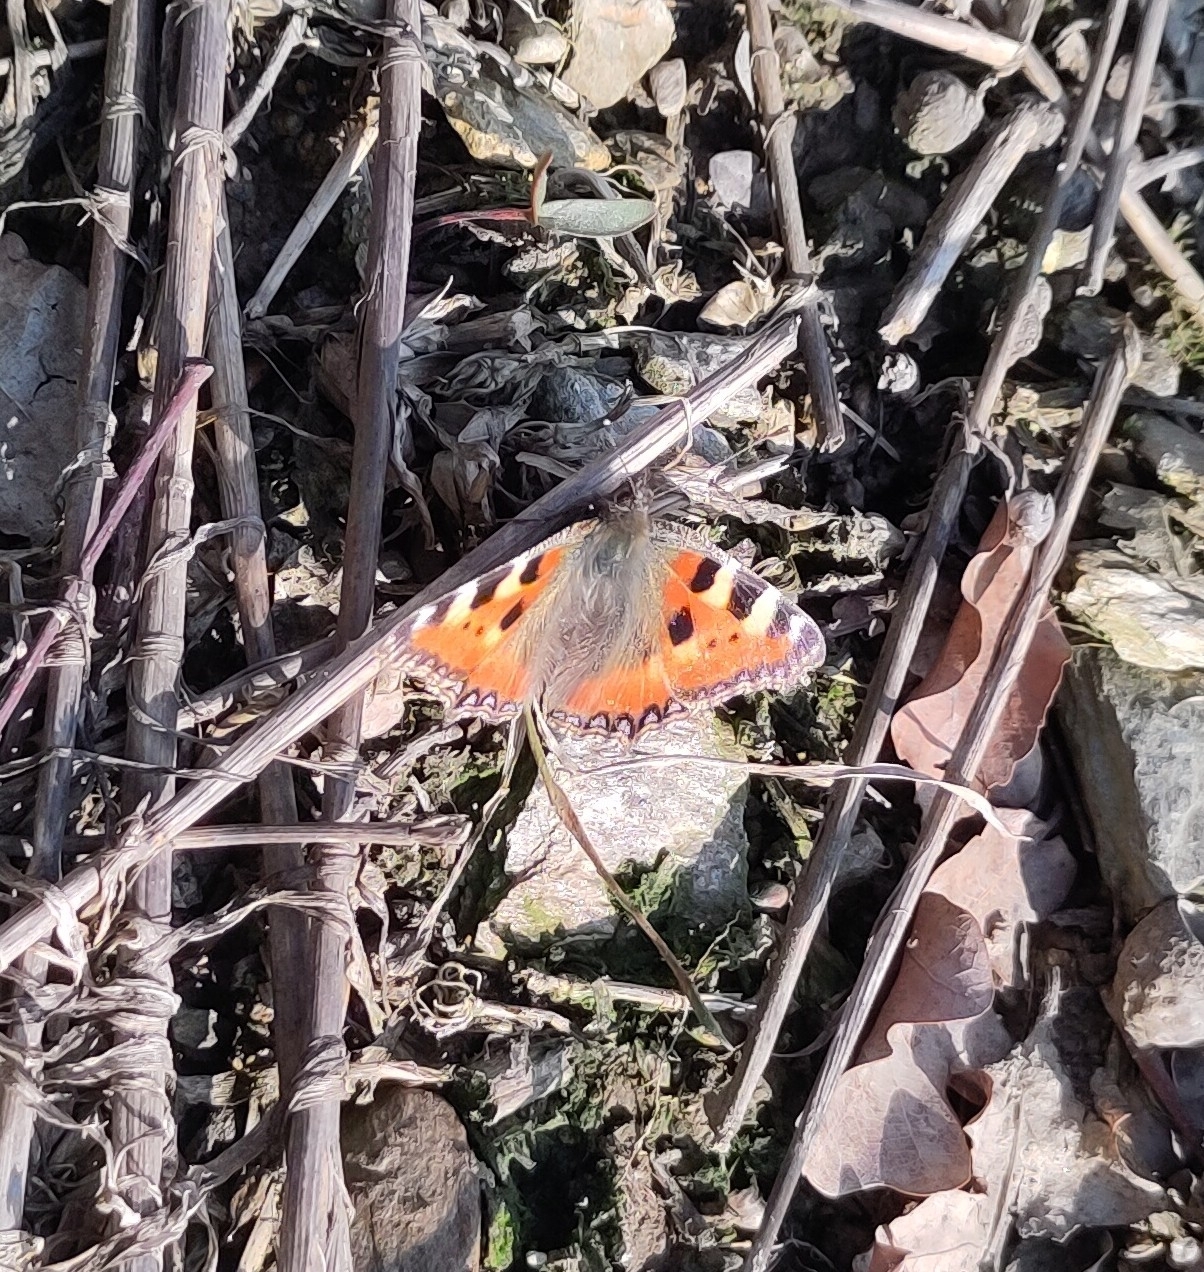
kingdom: Animalia
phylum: Arthropoda
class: Insecta
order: Lepidoptera
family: Nymphalidae
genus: Aglais
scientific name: Aglais urticae
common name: Small tortoiseshell
